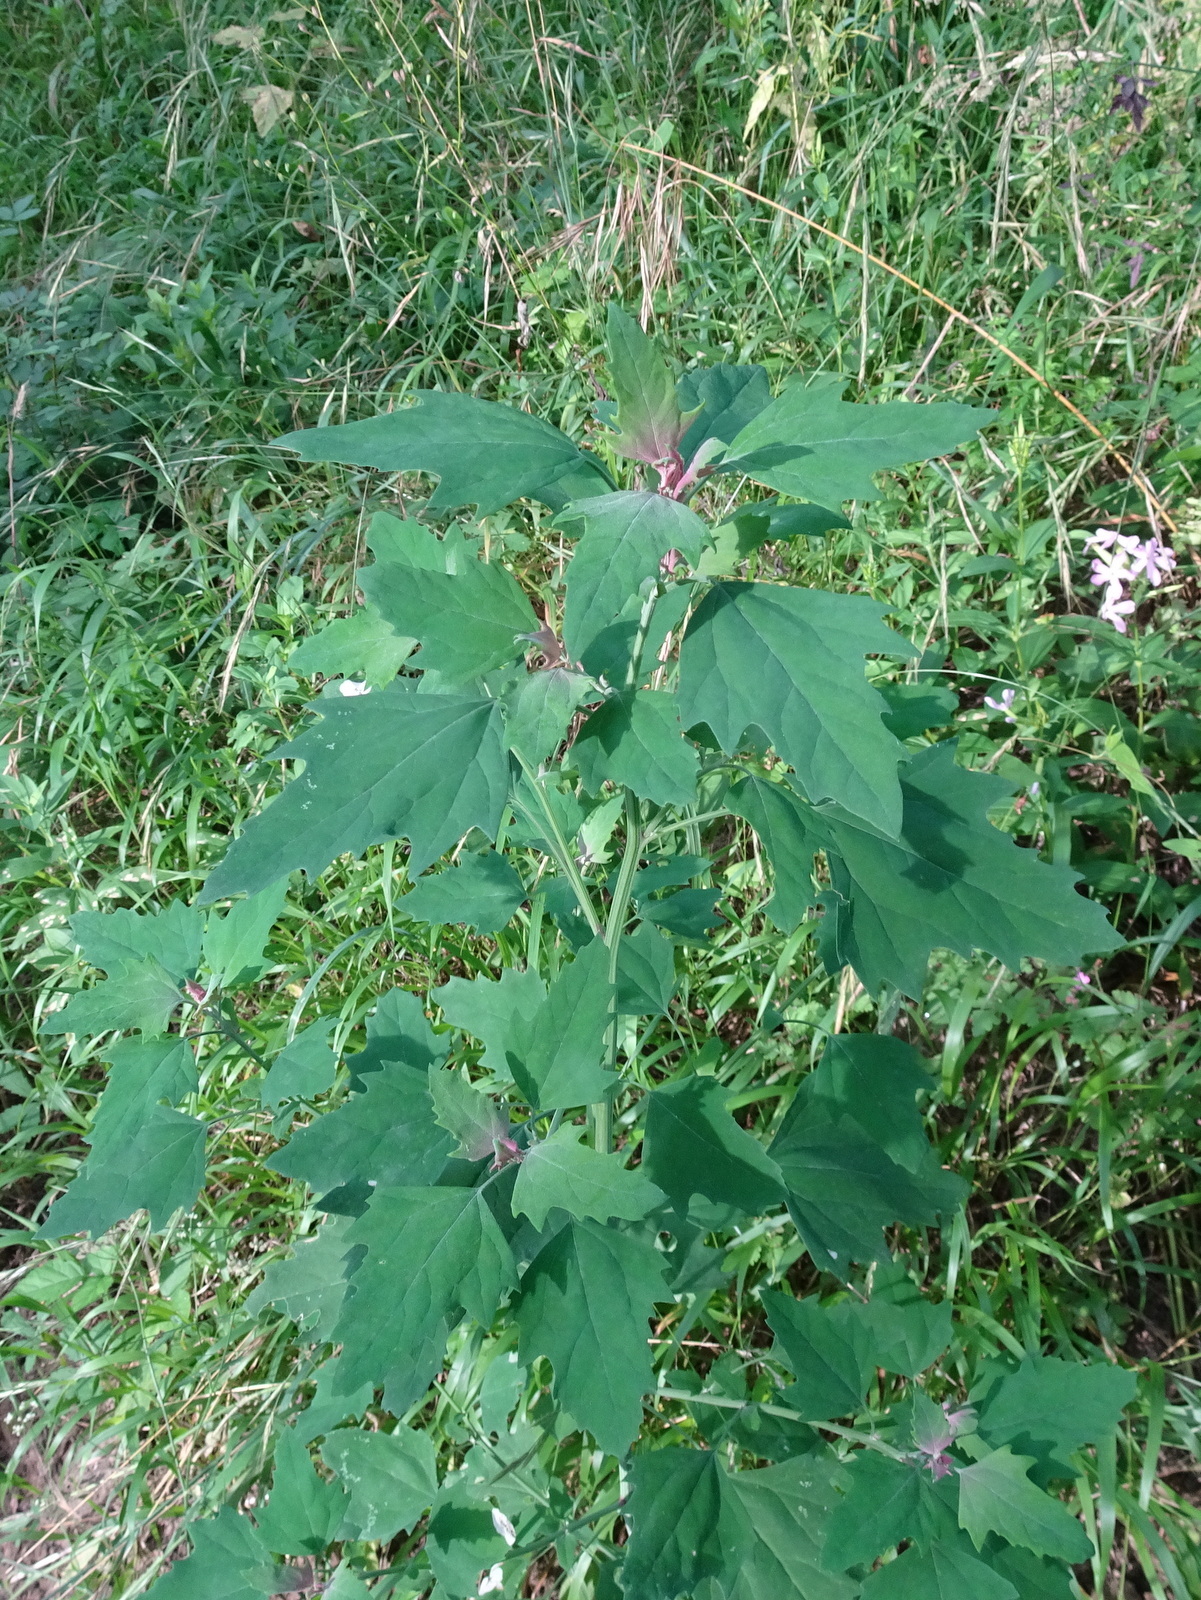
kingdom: Plantae
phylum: Tracheophyta
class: Magnoliopsida
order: Caryophyllales
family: Amaranthaceae
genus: Chenopodium
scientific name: Chenopodium album
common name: Fat-hen
